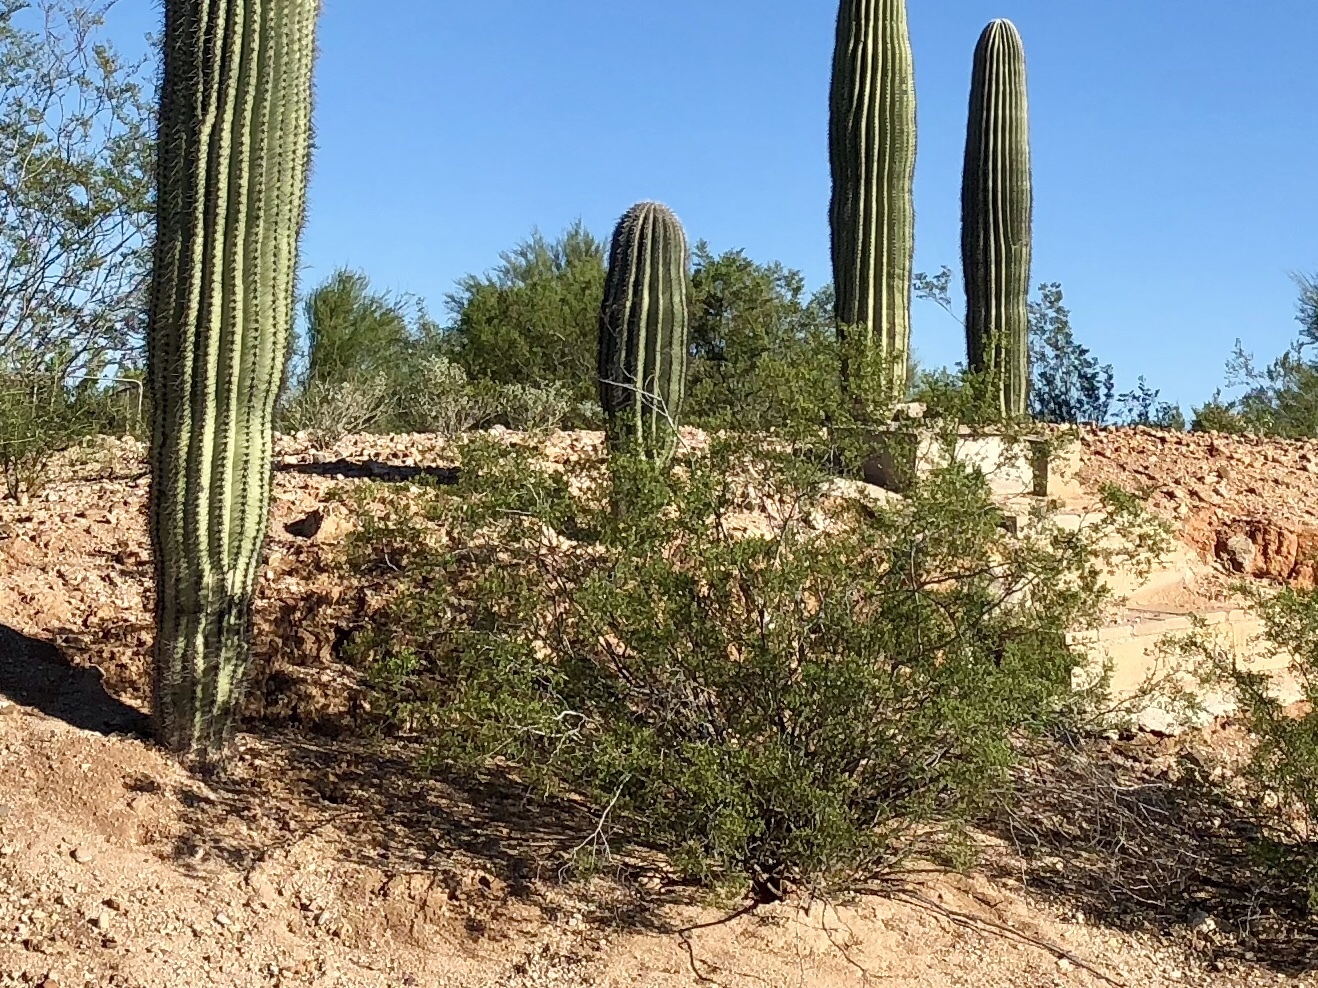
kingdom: Plantae
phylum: Tracheophyta
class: Magnoliopsida
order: Zygophyllales
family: Zygophyllaceae
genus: Larrea
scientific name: Larrea tridentata
